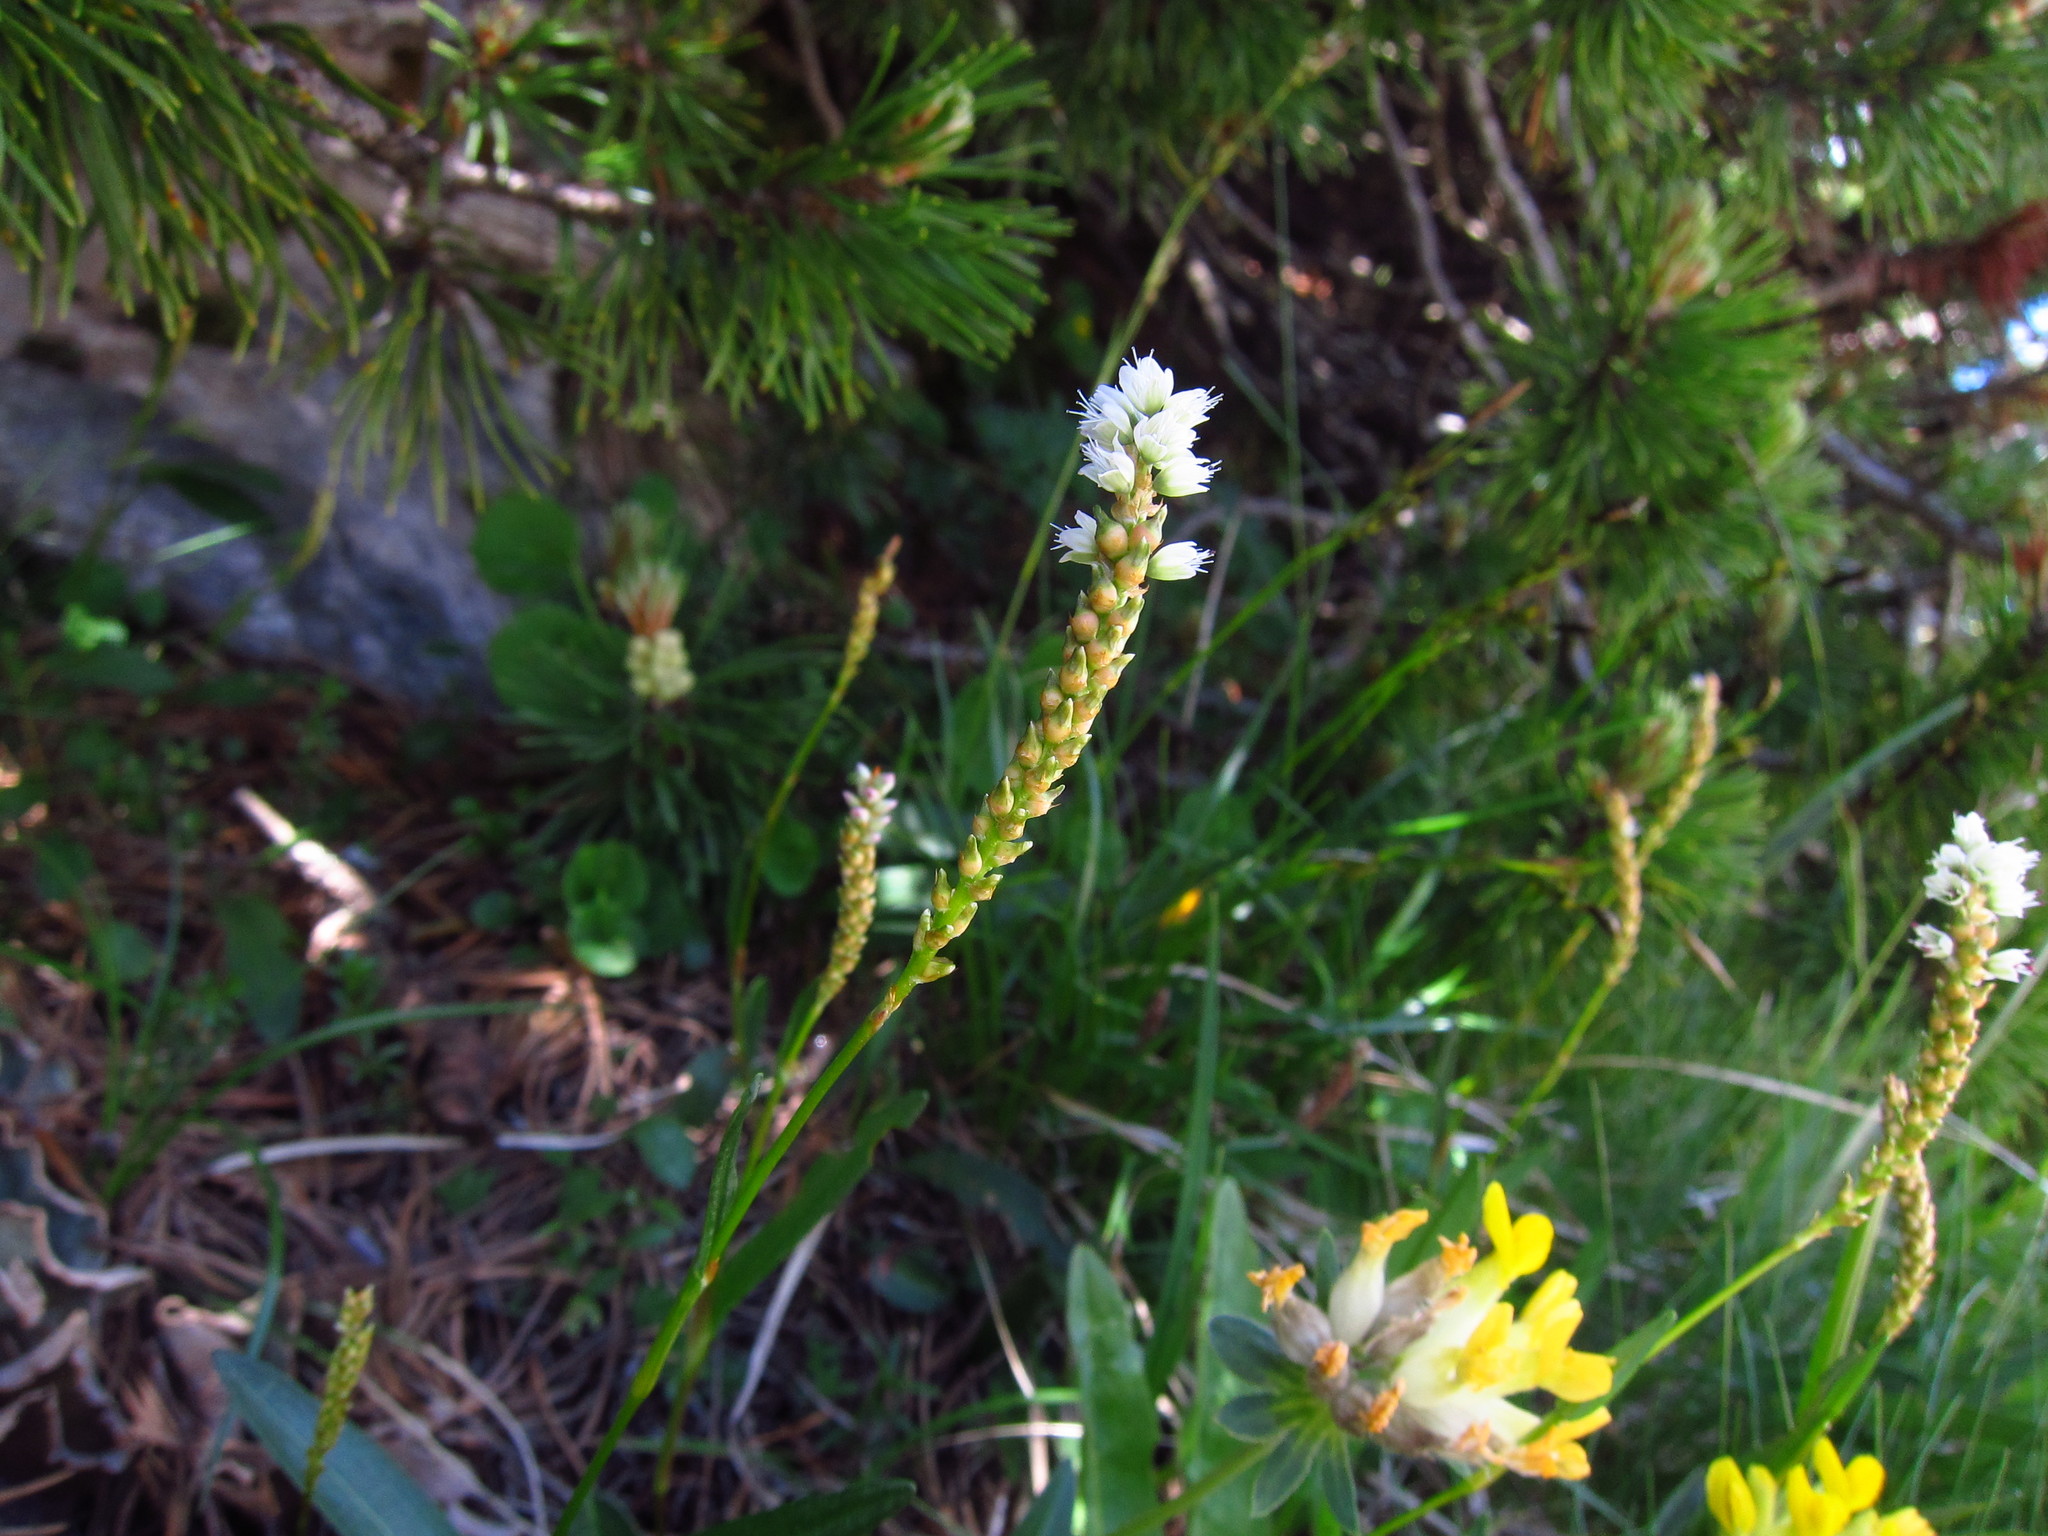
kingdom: Plantae
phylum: Tracheophyta
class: Magnoliopsida
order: Caryophyllales
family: Polygonaceae
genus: Bistorta
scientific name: Bistorta vivipara
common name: Alpine bistort
